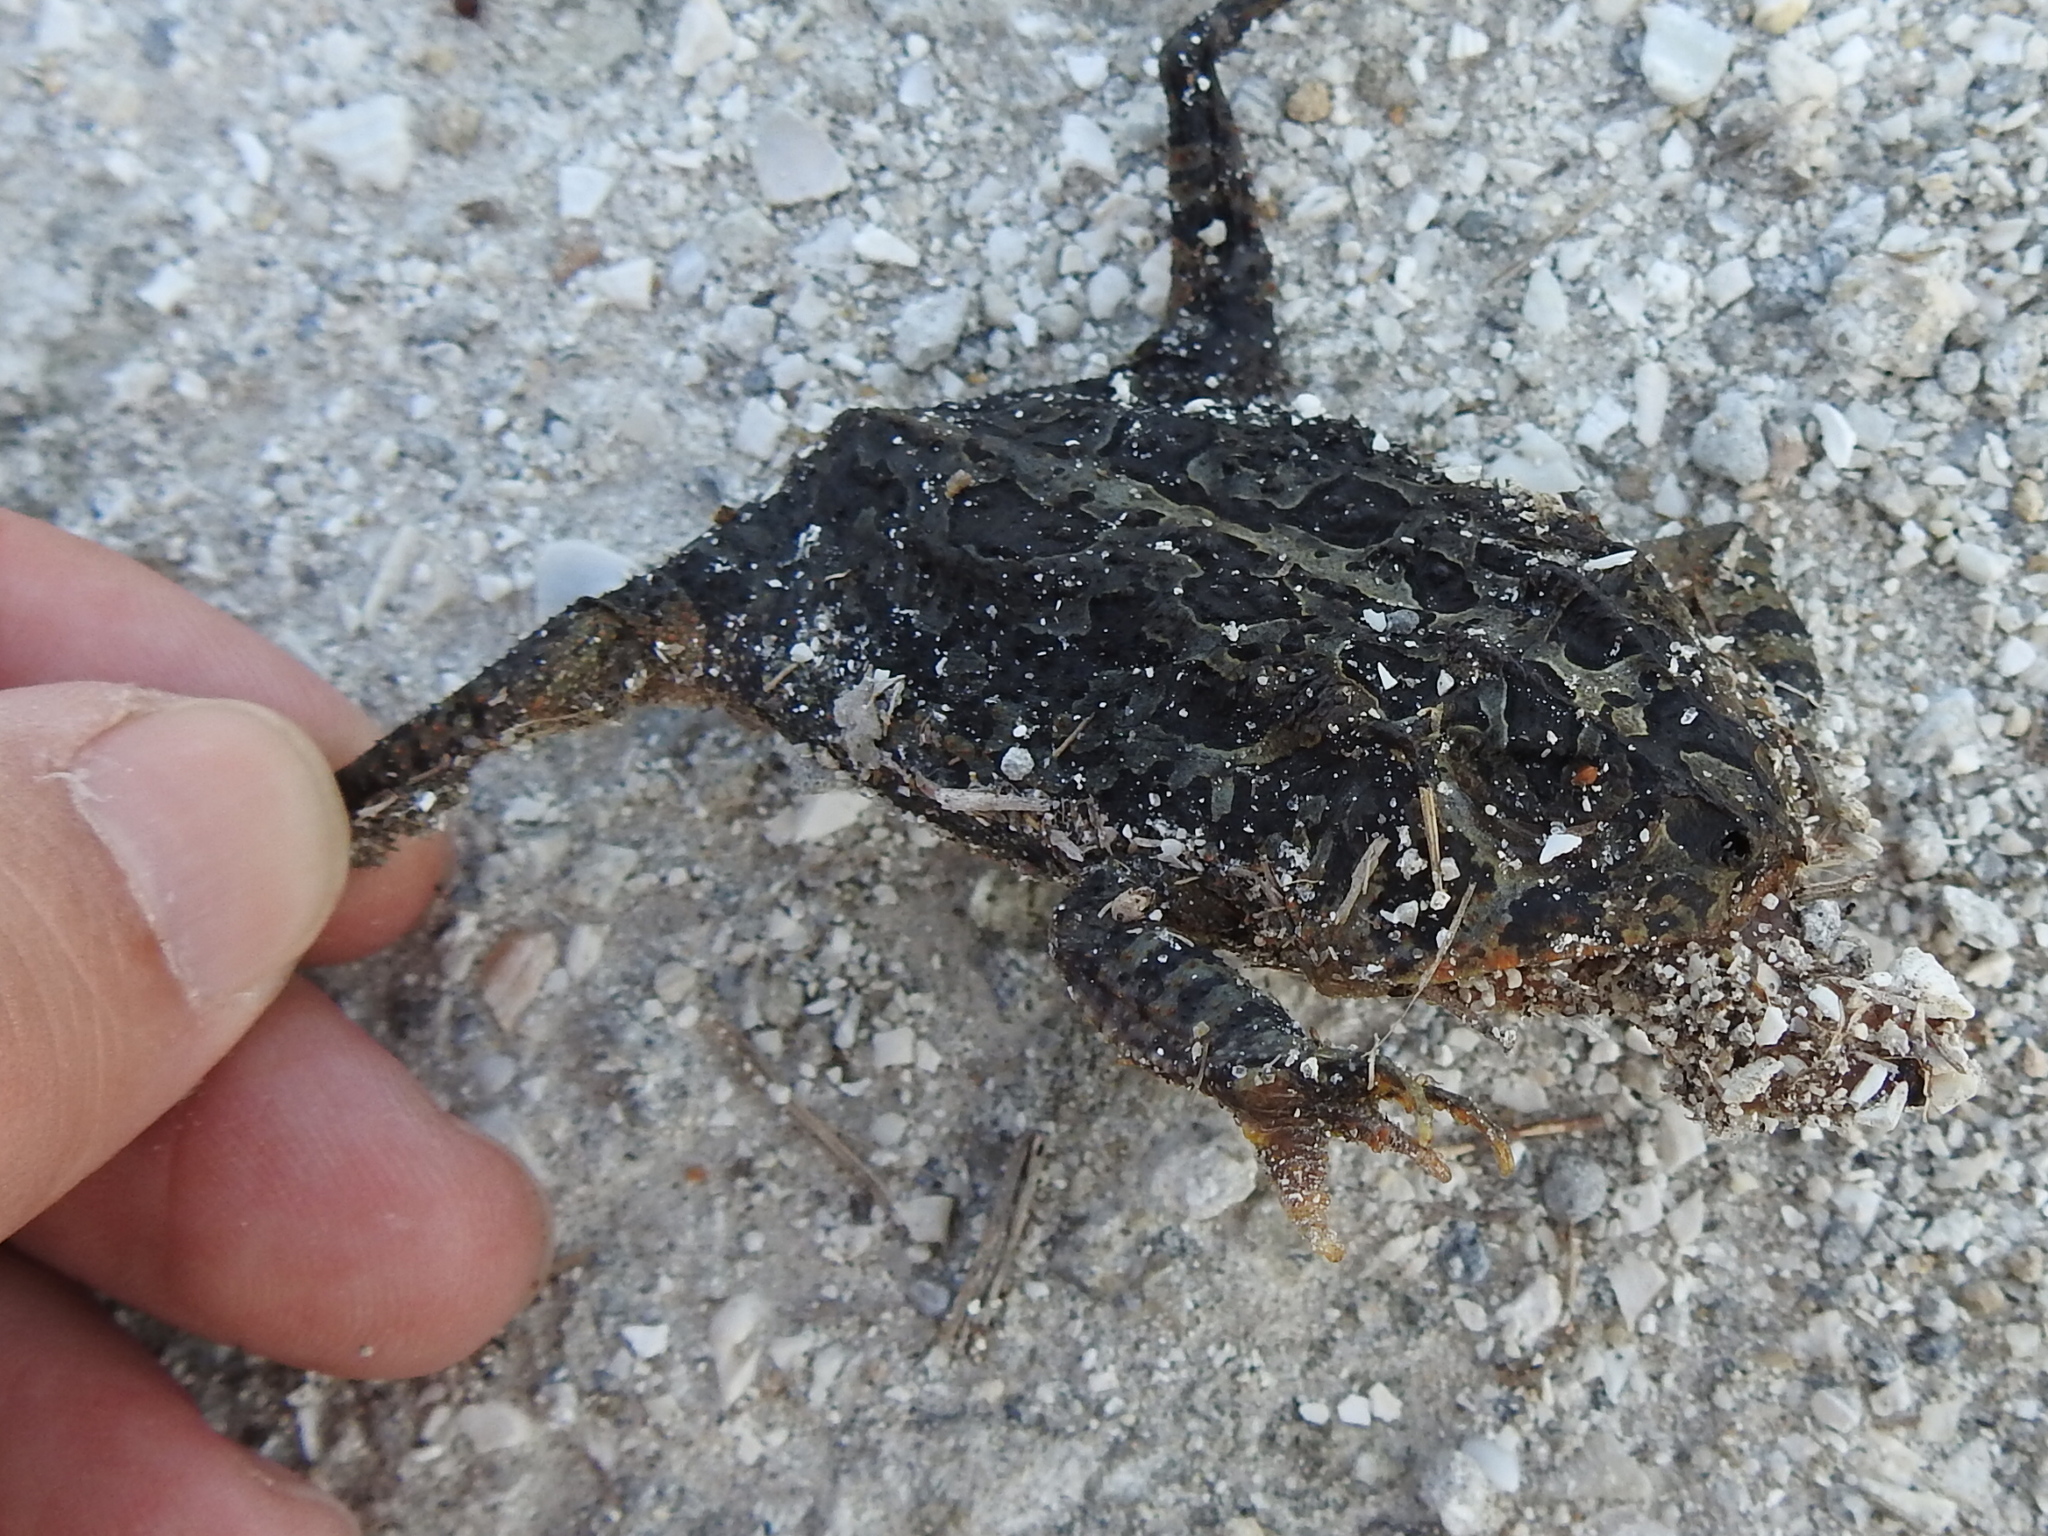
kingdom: Animalia
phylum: Chordata
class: Amphibia
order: Anura
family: Bufonidae
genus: Anaxyrus
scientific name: Anaxyrus terrestris
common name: Southern toad
